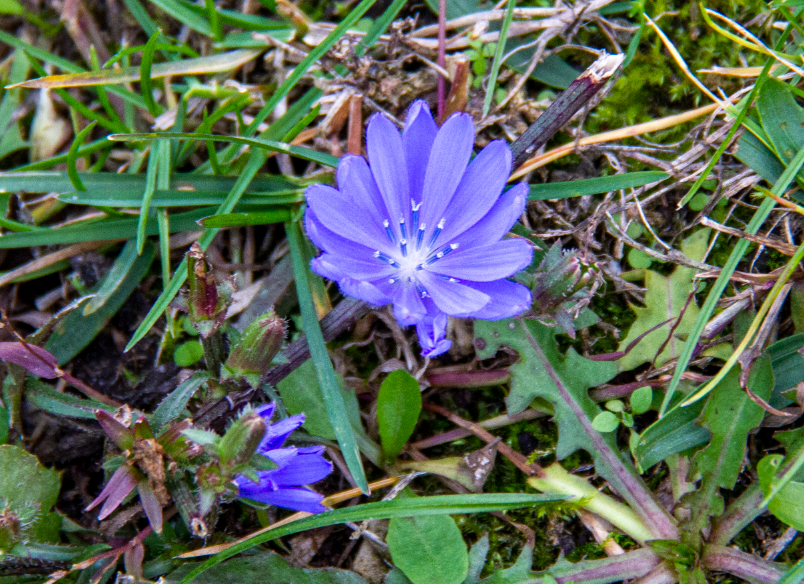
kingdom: Plantae
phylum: Tracheophyta
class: Magnoliopsida
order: Asterales
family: Asteraceae
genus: Cichorium
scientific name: Cichorium intybus
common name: Chicory
